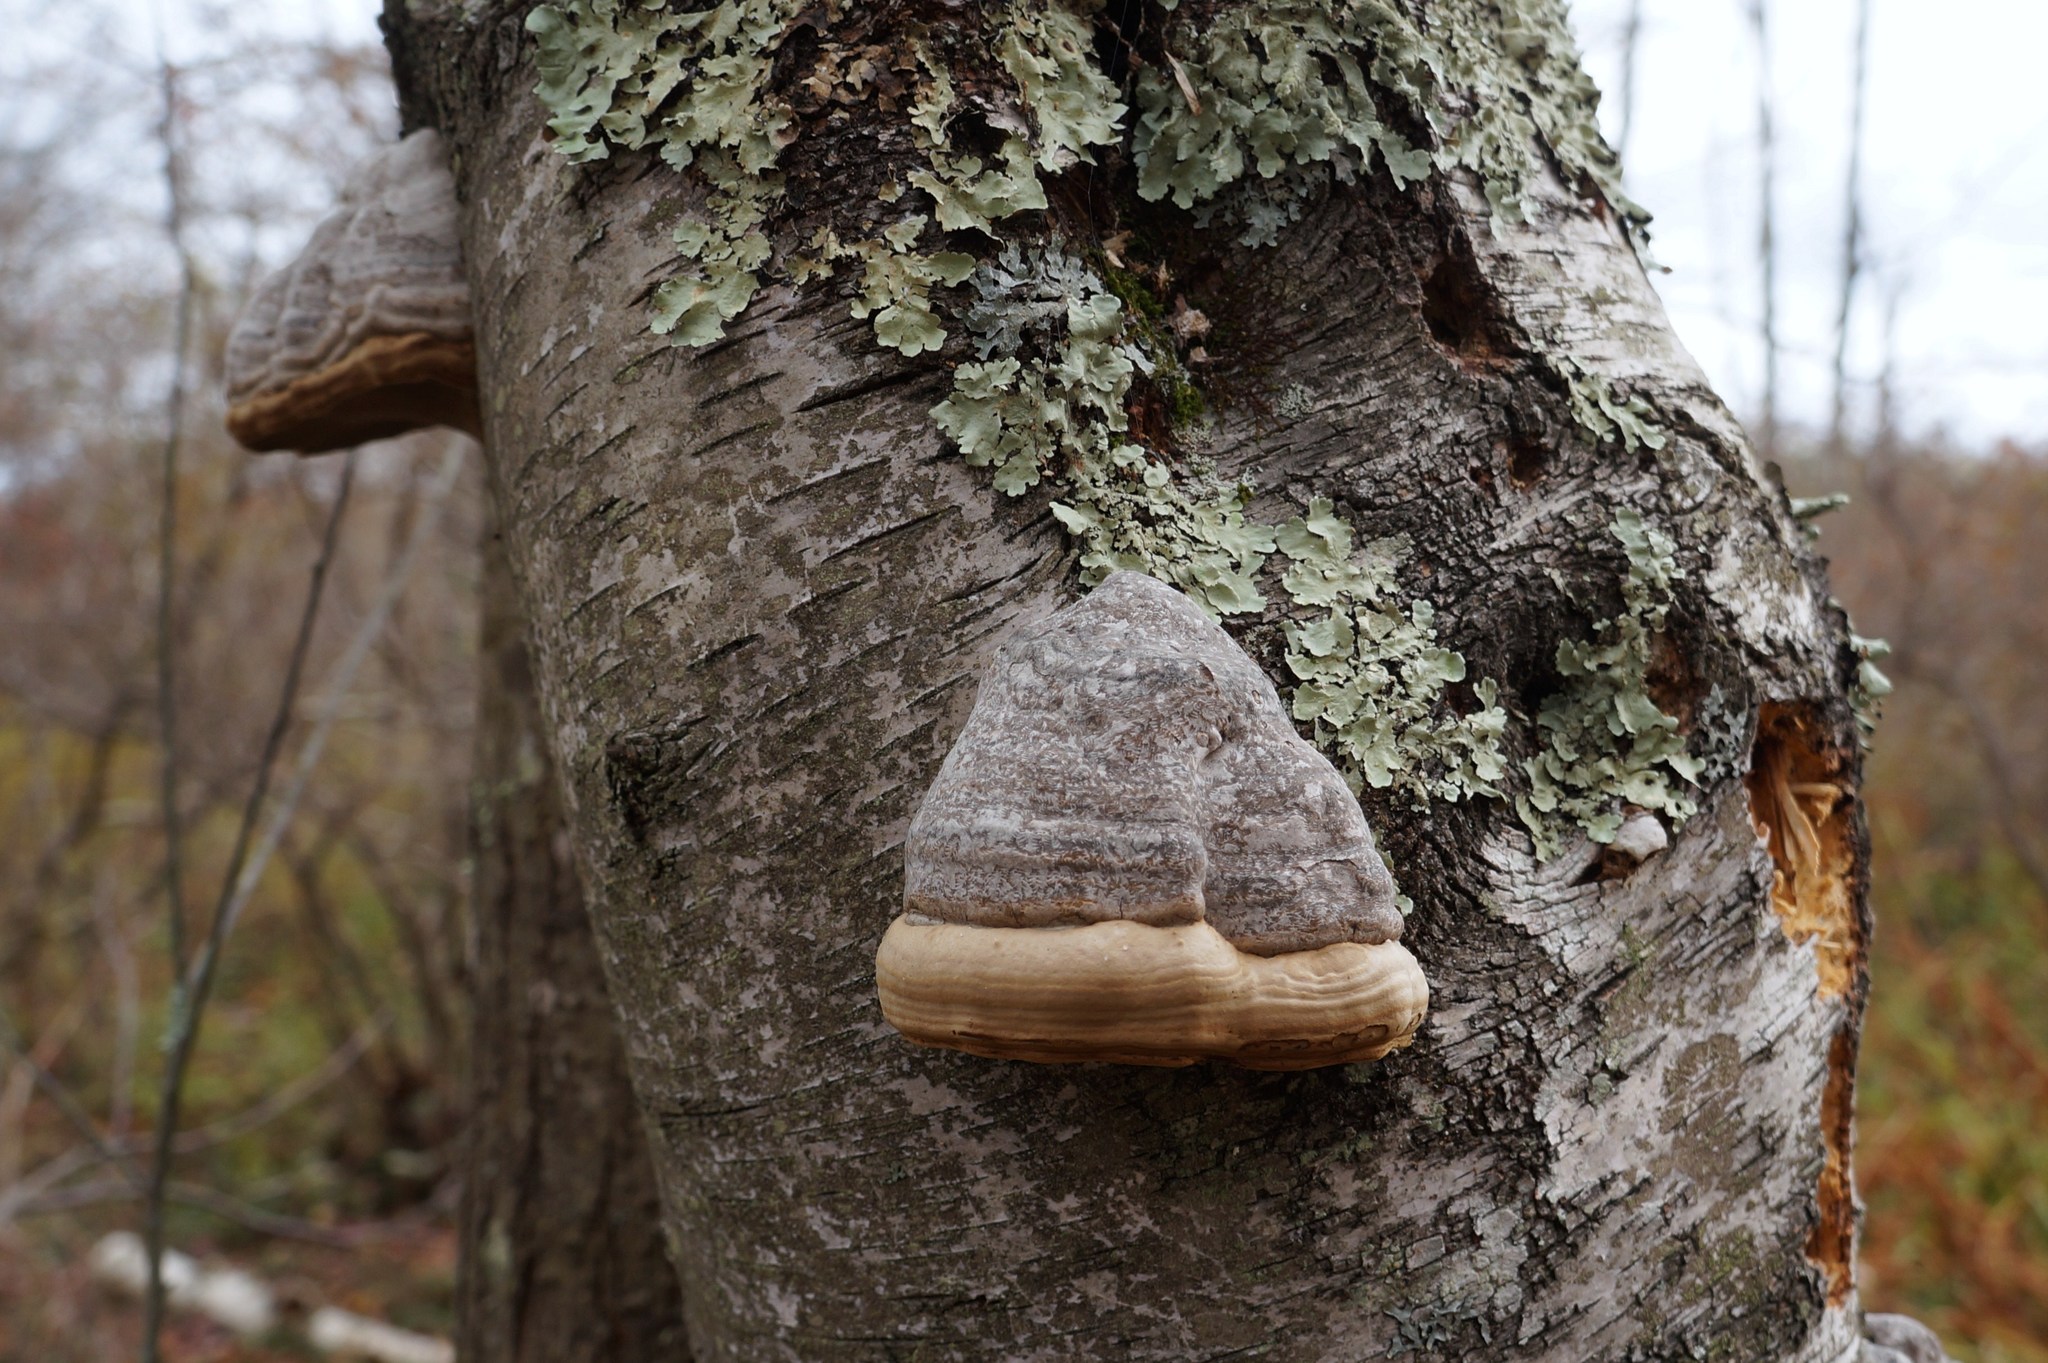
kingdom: Fungi
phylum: Basidiomycota
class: Agaricomycetes
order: Polyporales
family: Polyporaceae
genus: Fomes
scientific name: Fomes fomentarius
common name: Hoof fungus
